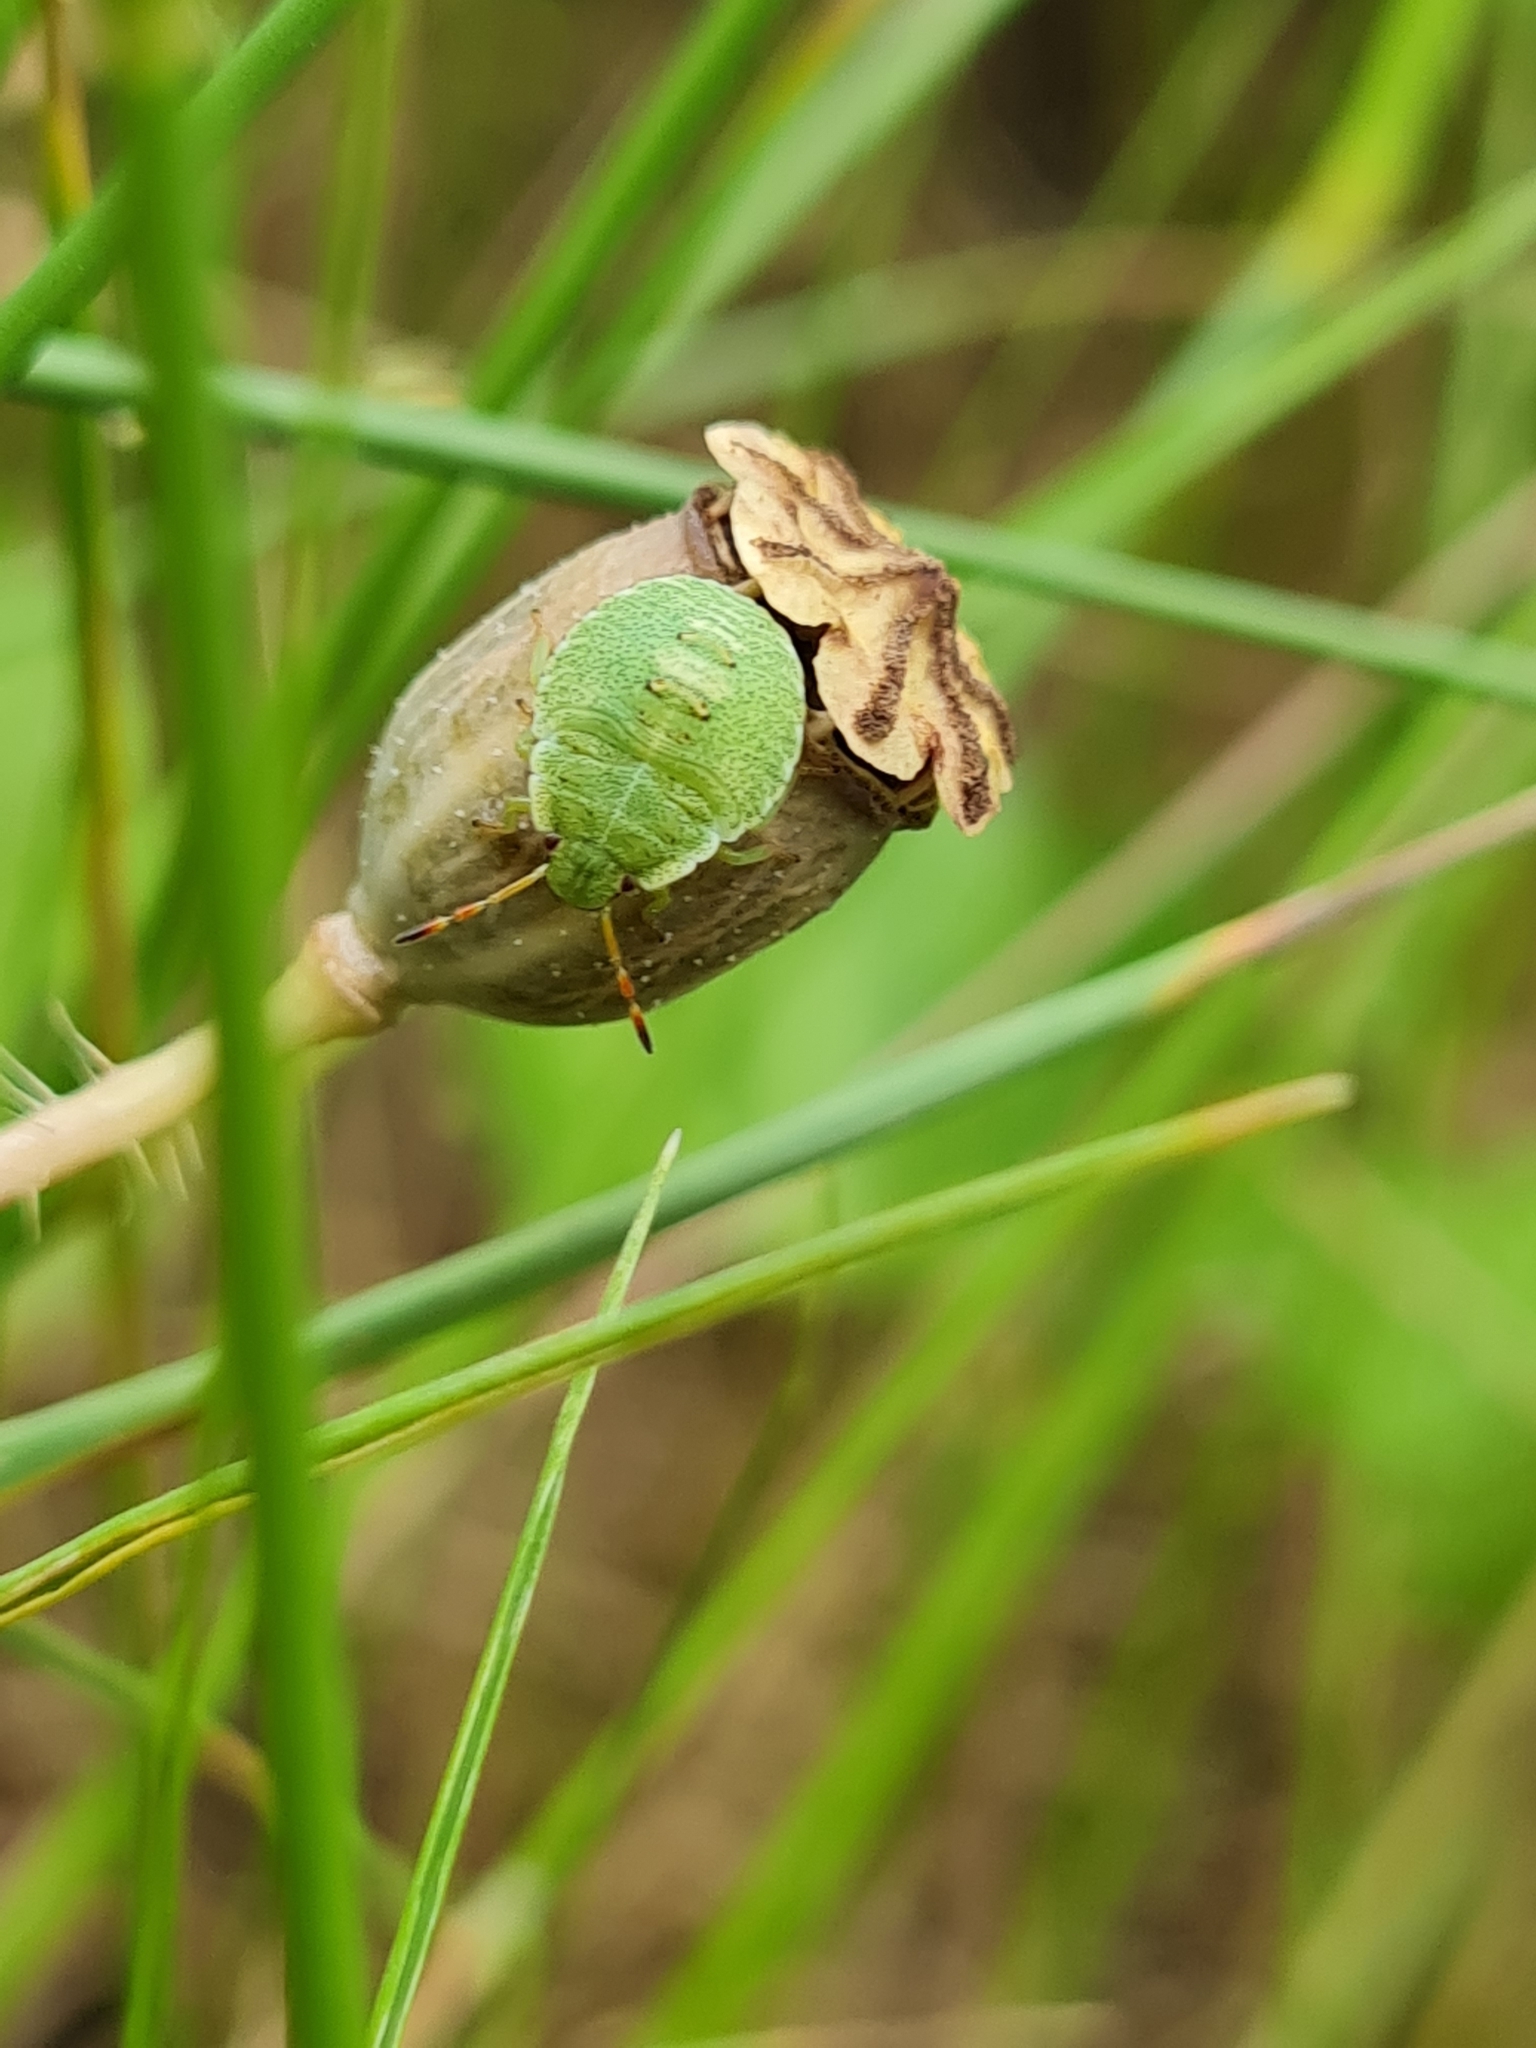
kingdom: Animalia
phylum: Arthropoda
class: Insecta
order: Hemiptera
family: Pentatomidae
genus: Palomena
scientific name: Palomena prasina
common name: Green shieldbug
